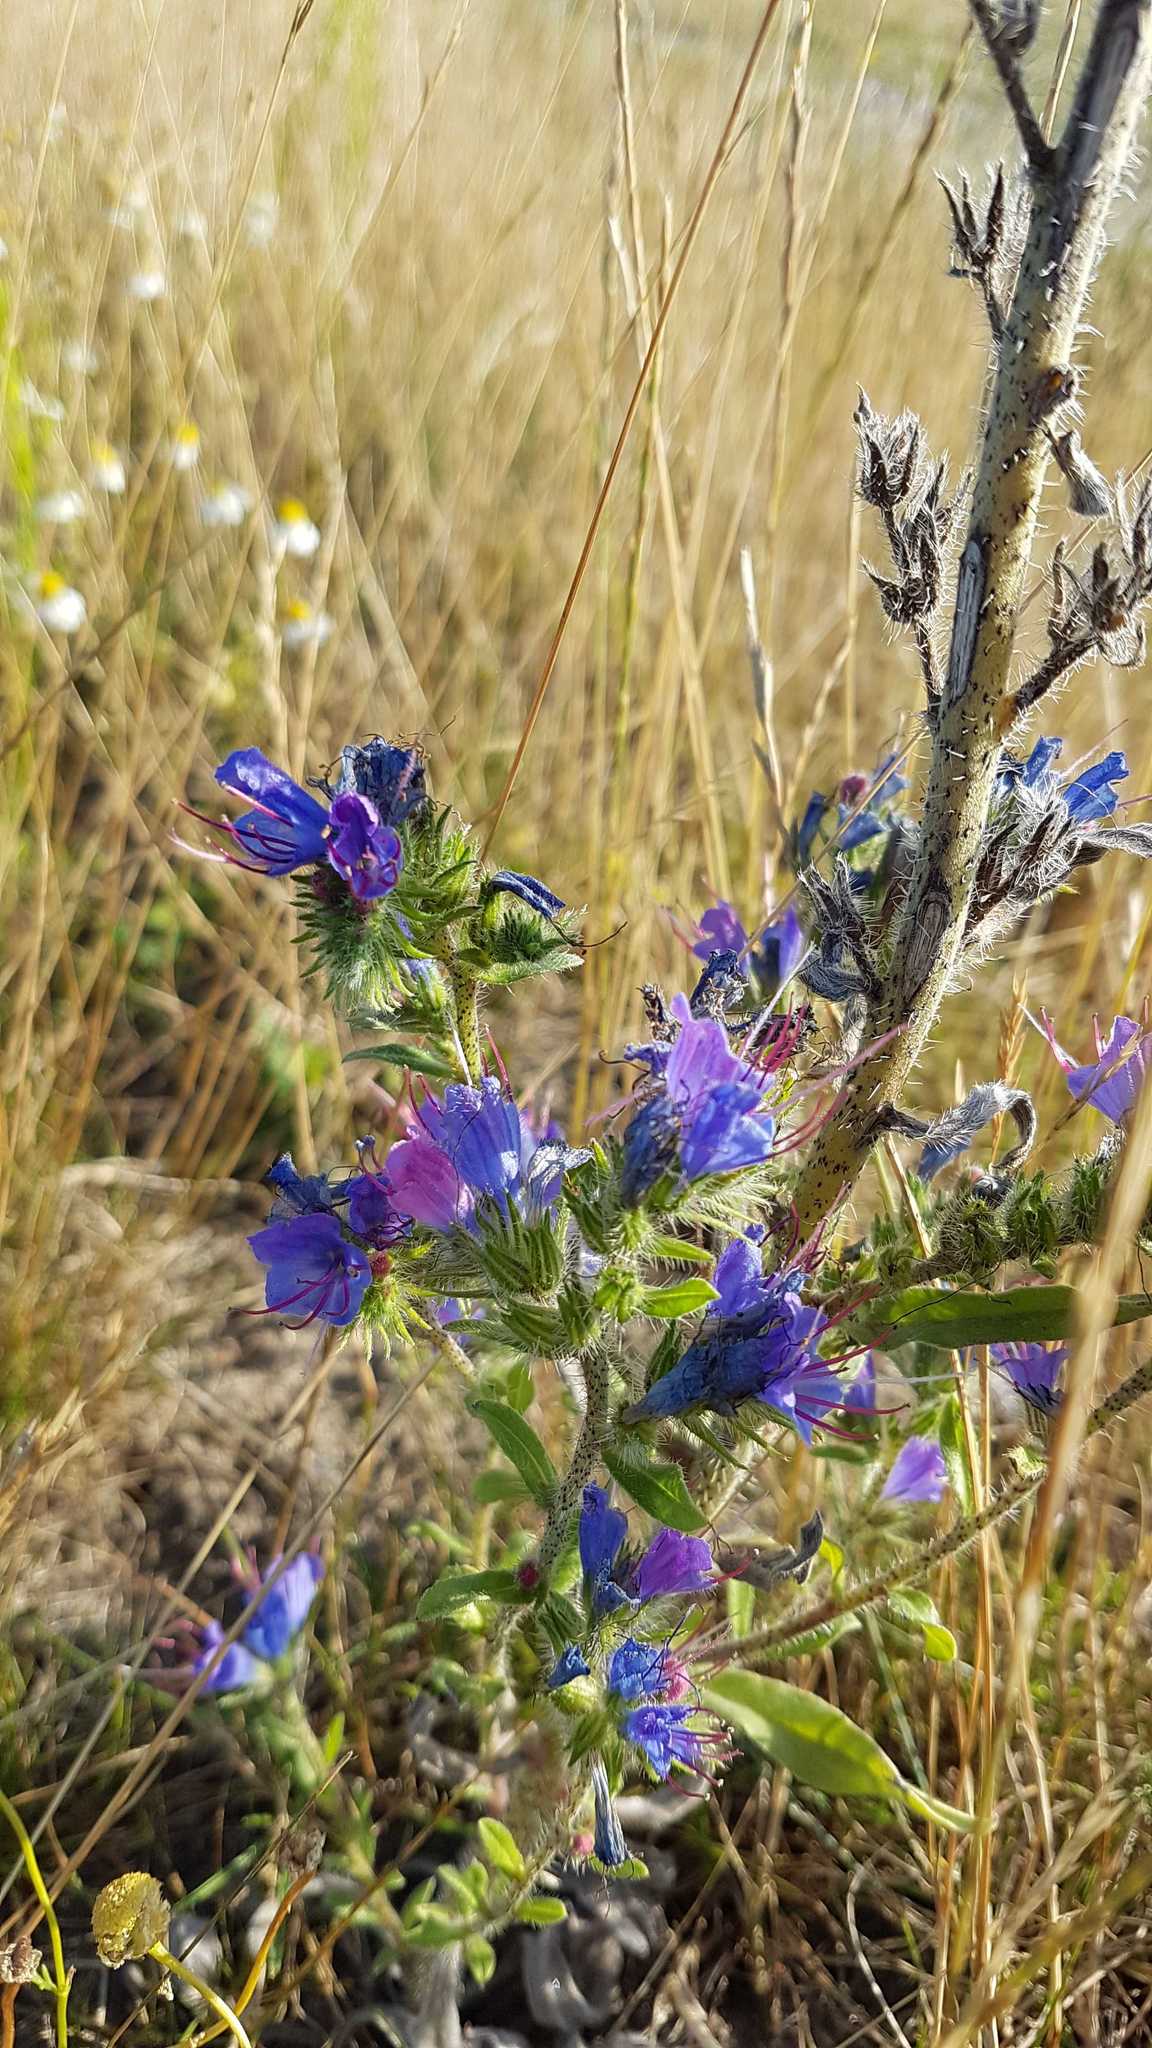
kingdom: Plantae
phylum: Tracheophyta
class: Magnoliopsida
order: Boraginales
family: Boraginaceae
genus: Echium
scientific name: Echium vulgare
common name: Common viper's bugloss
